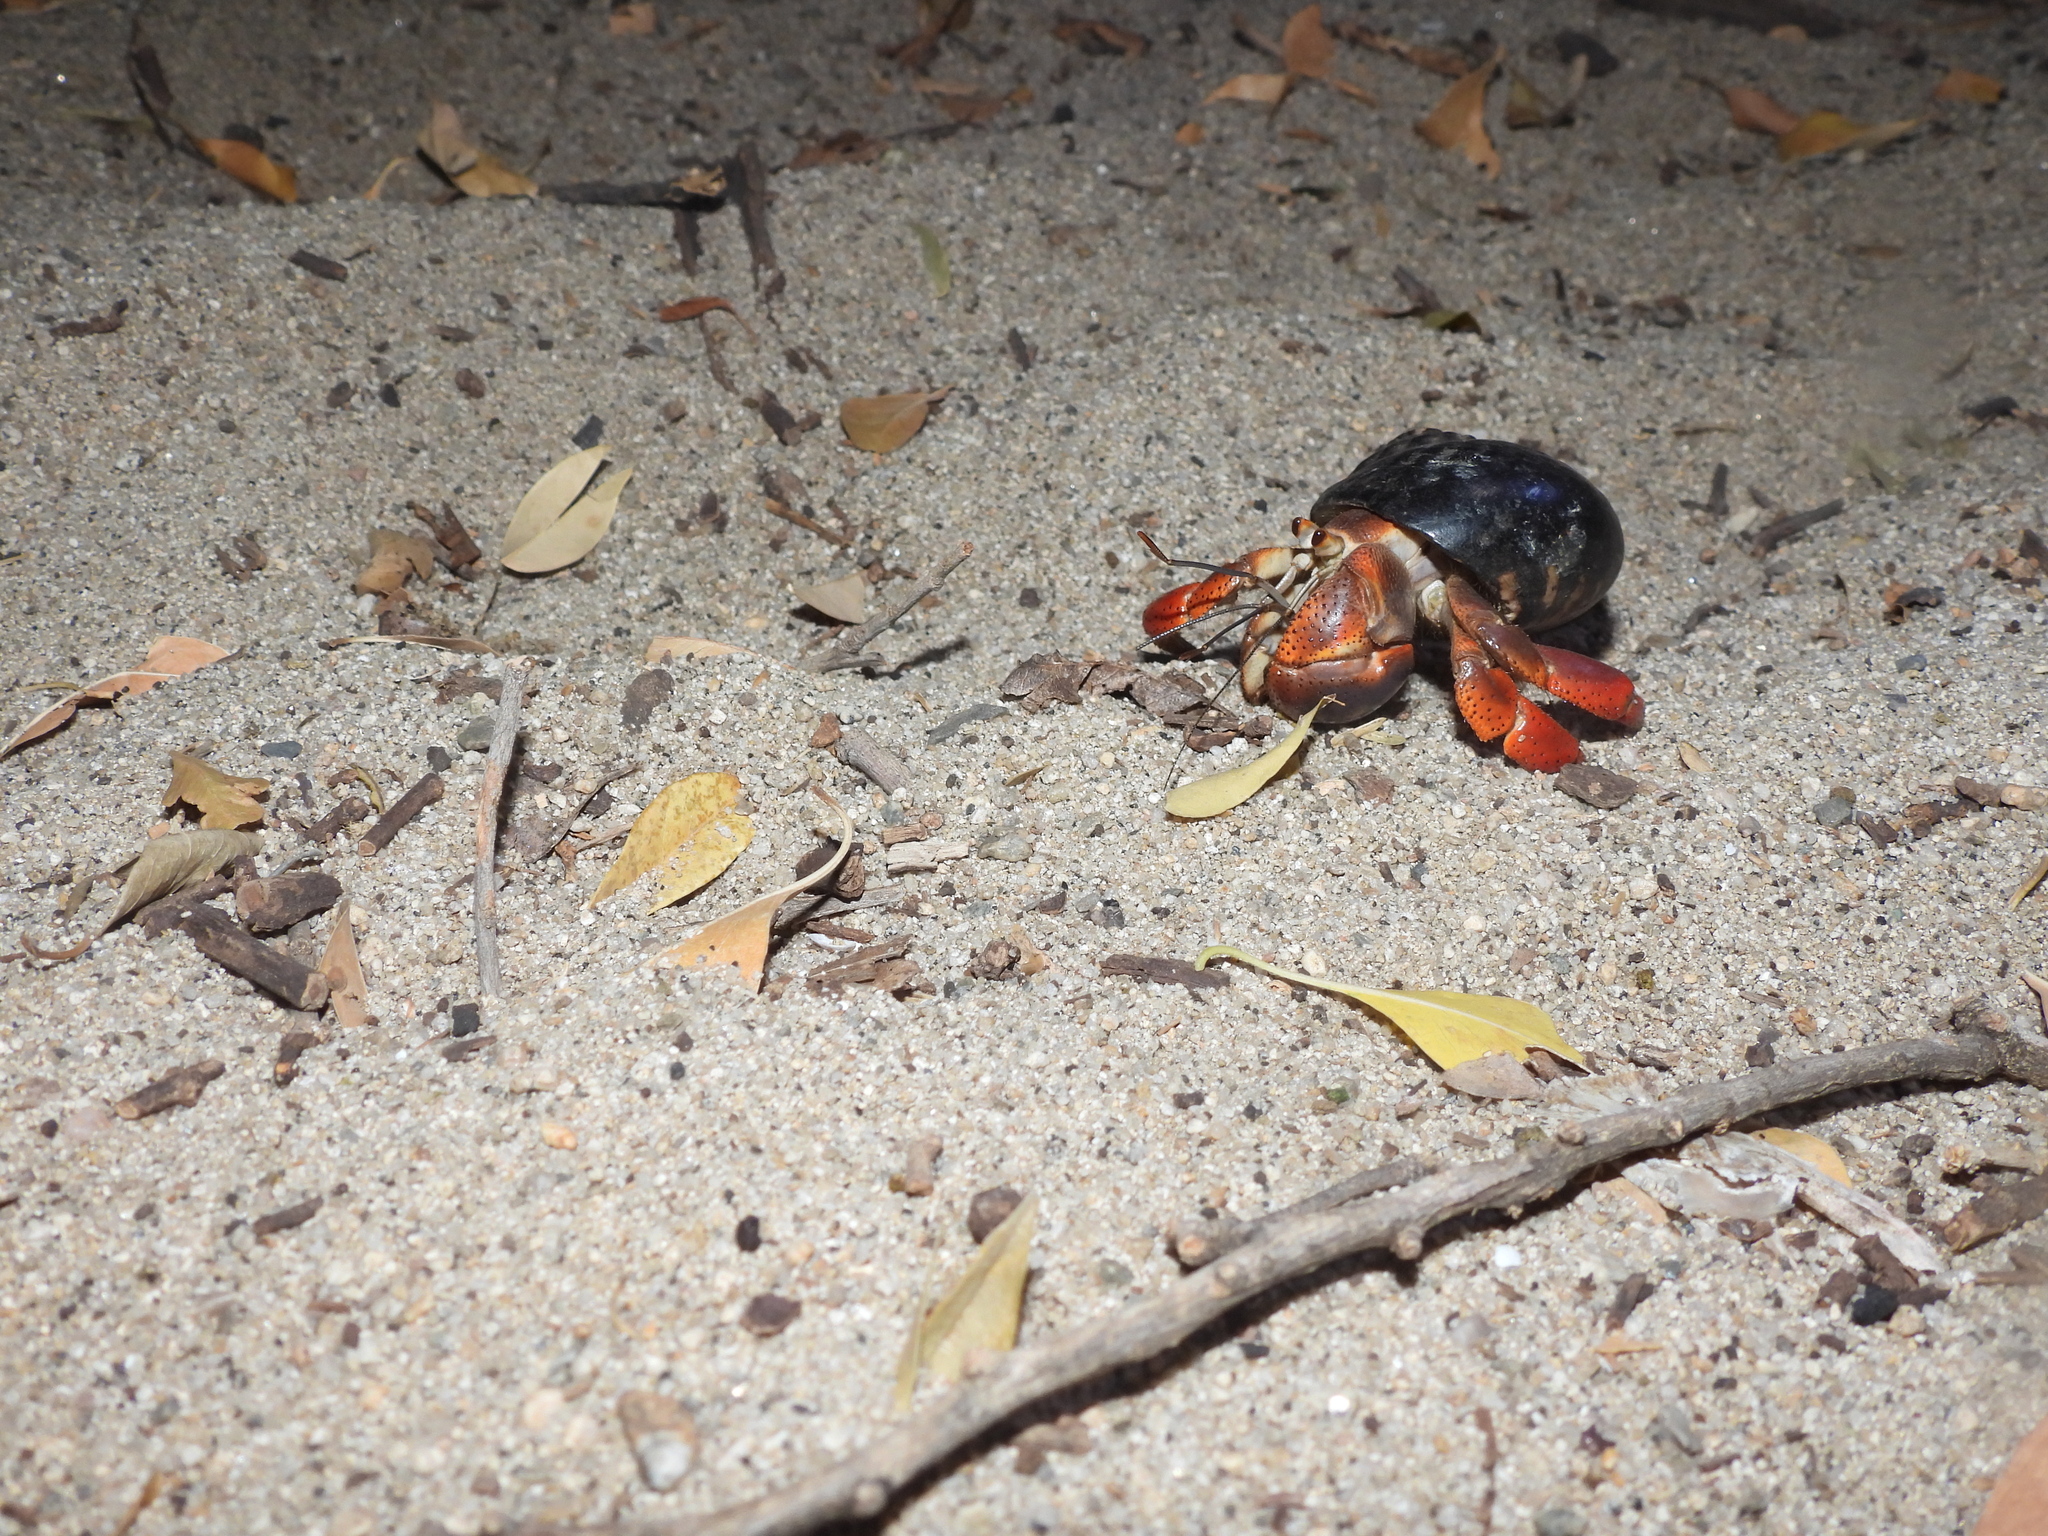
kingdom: Animalia
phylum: Arthropoda
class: Malacostraca
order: Decapoda
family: Coenobitidae
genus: Coenobita
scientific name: Coenobita clypeatus
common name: Caribbean hermit crab
